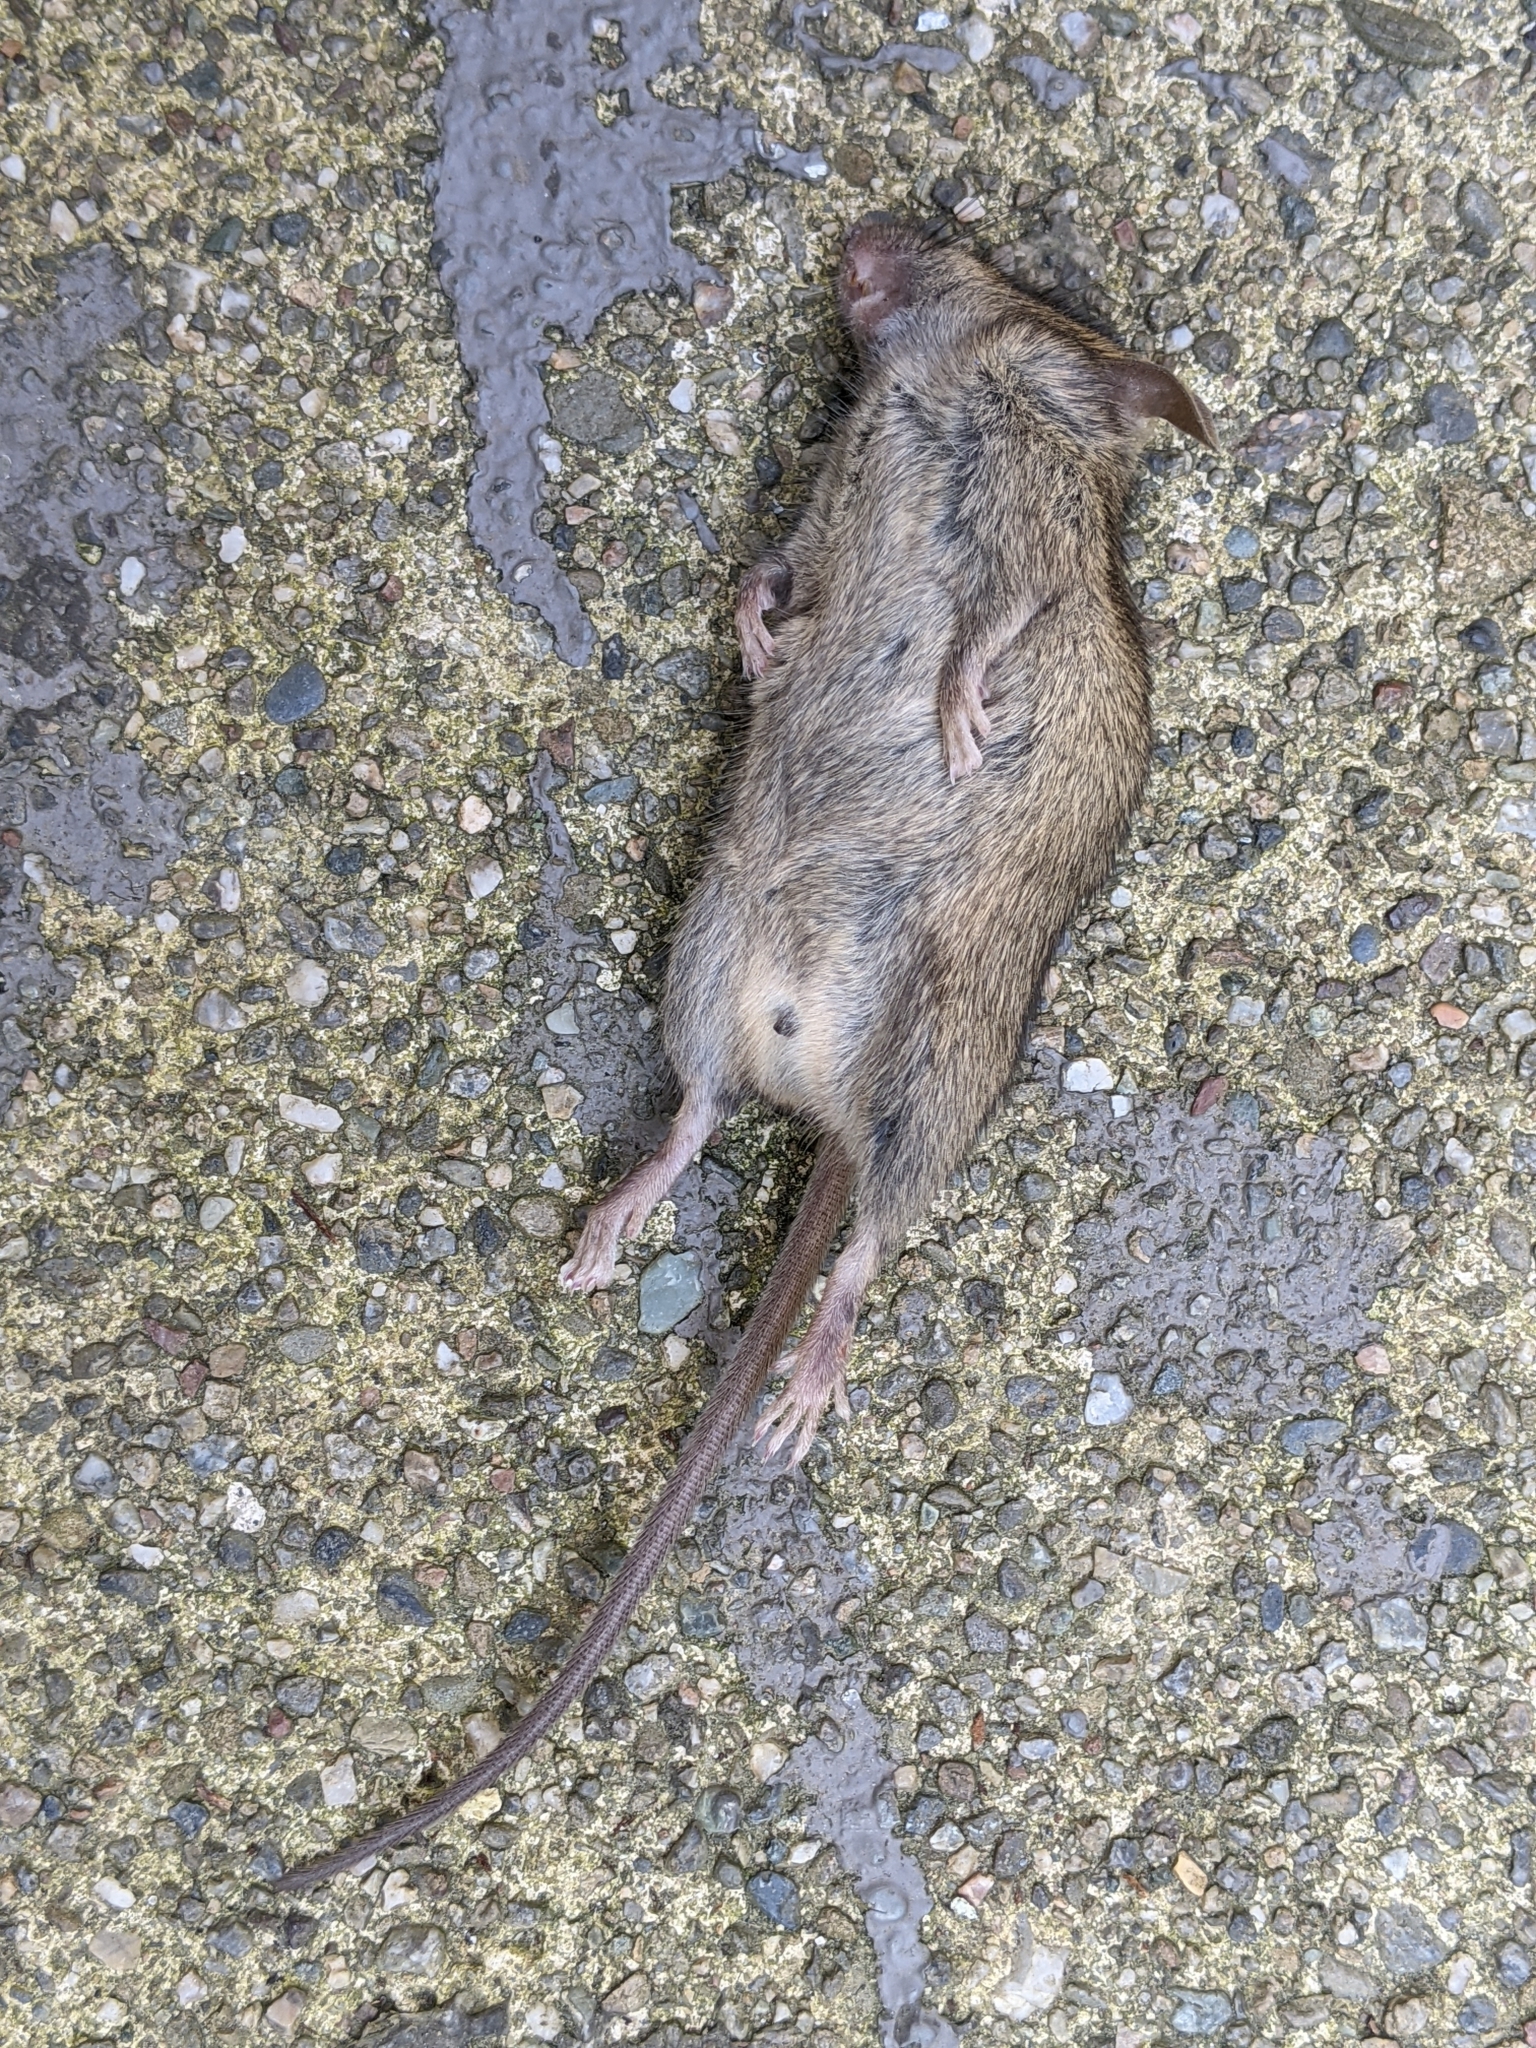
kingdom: Animalia
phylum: Chordata
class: Mammalia
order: Rodentia
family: Muridae
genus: Mus
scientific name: Mus musculus
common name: House mouse
